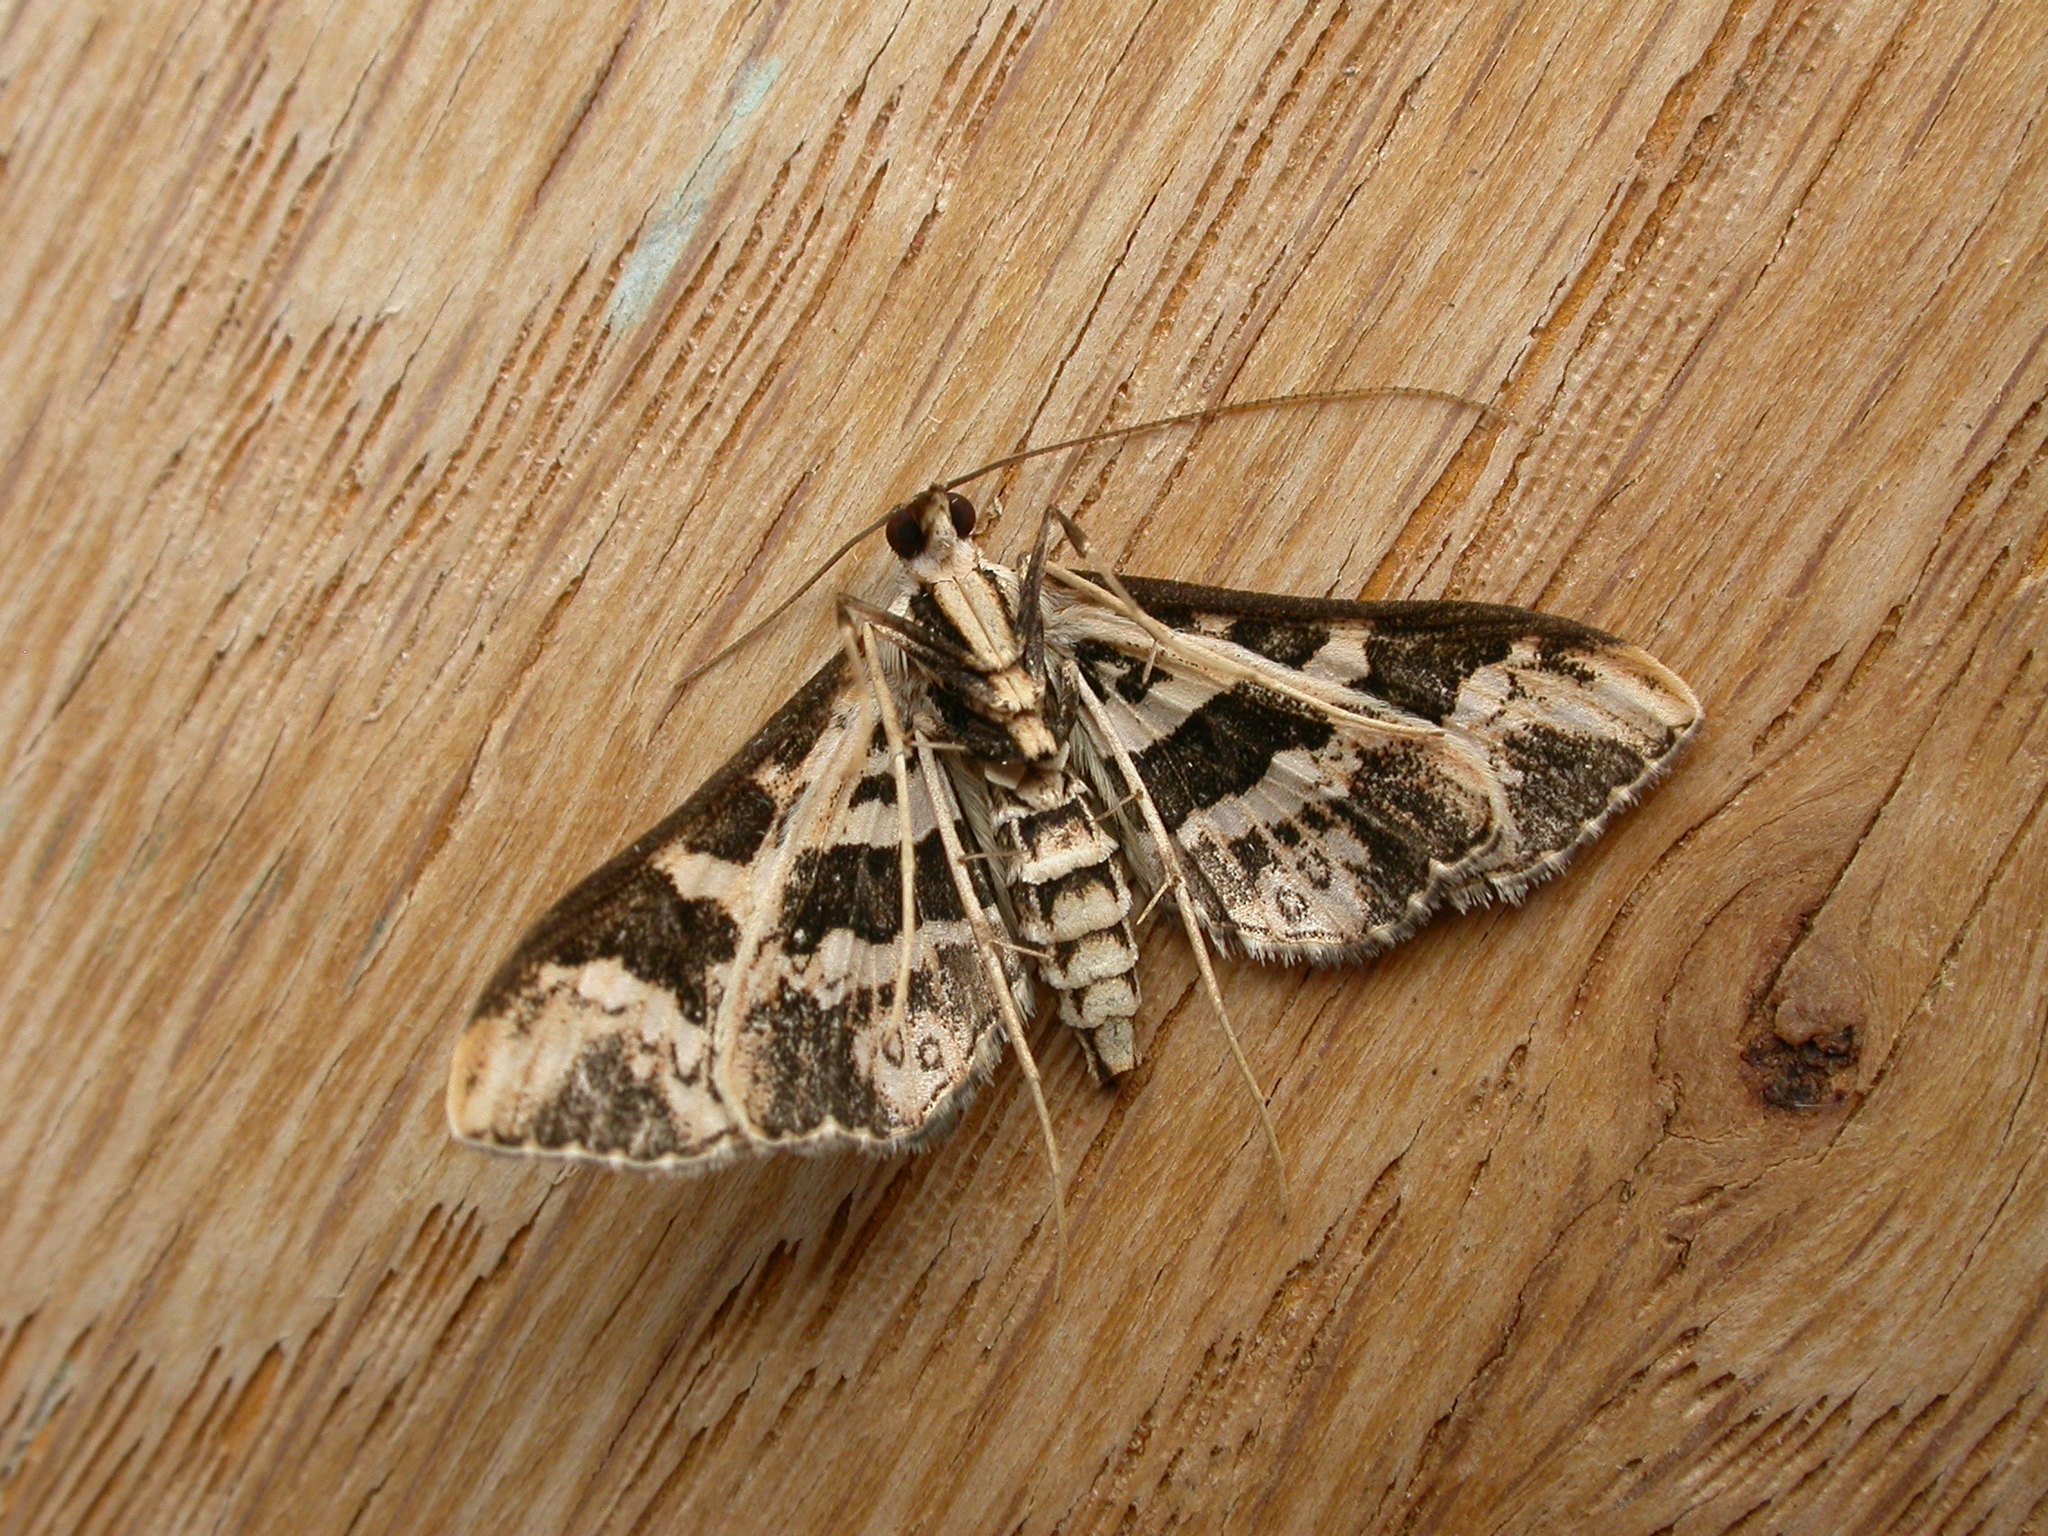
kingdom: Animalia
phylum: Arthropoda
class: Insecta
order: Lepidoptera
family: Crambidae
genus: Ischnurges
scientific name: Ischnurges illustralis
